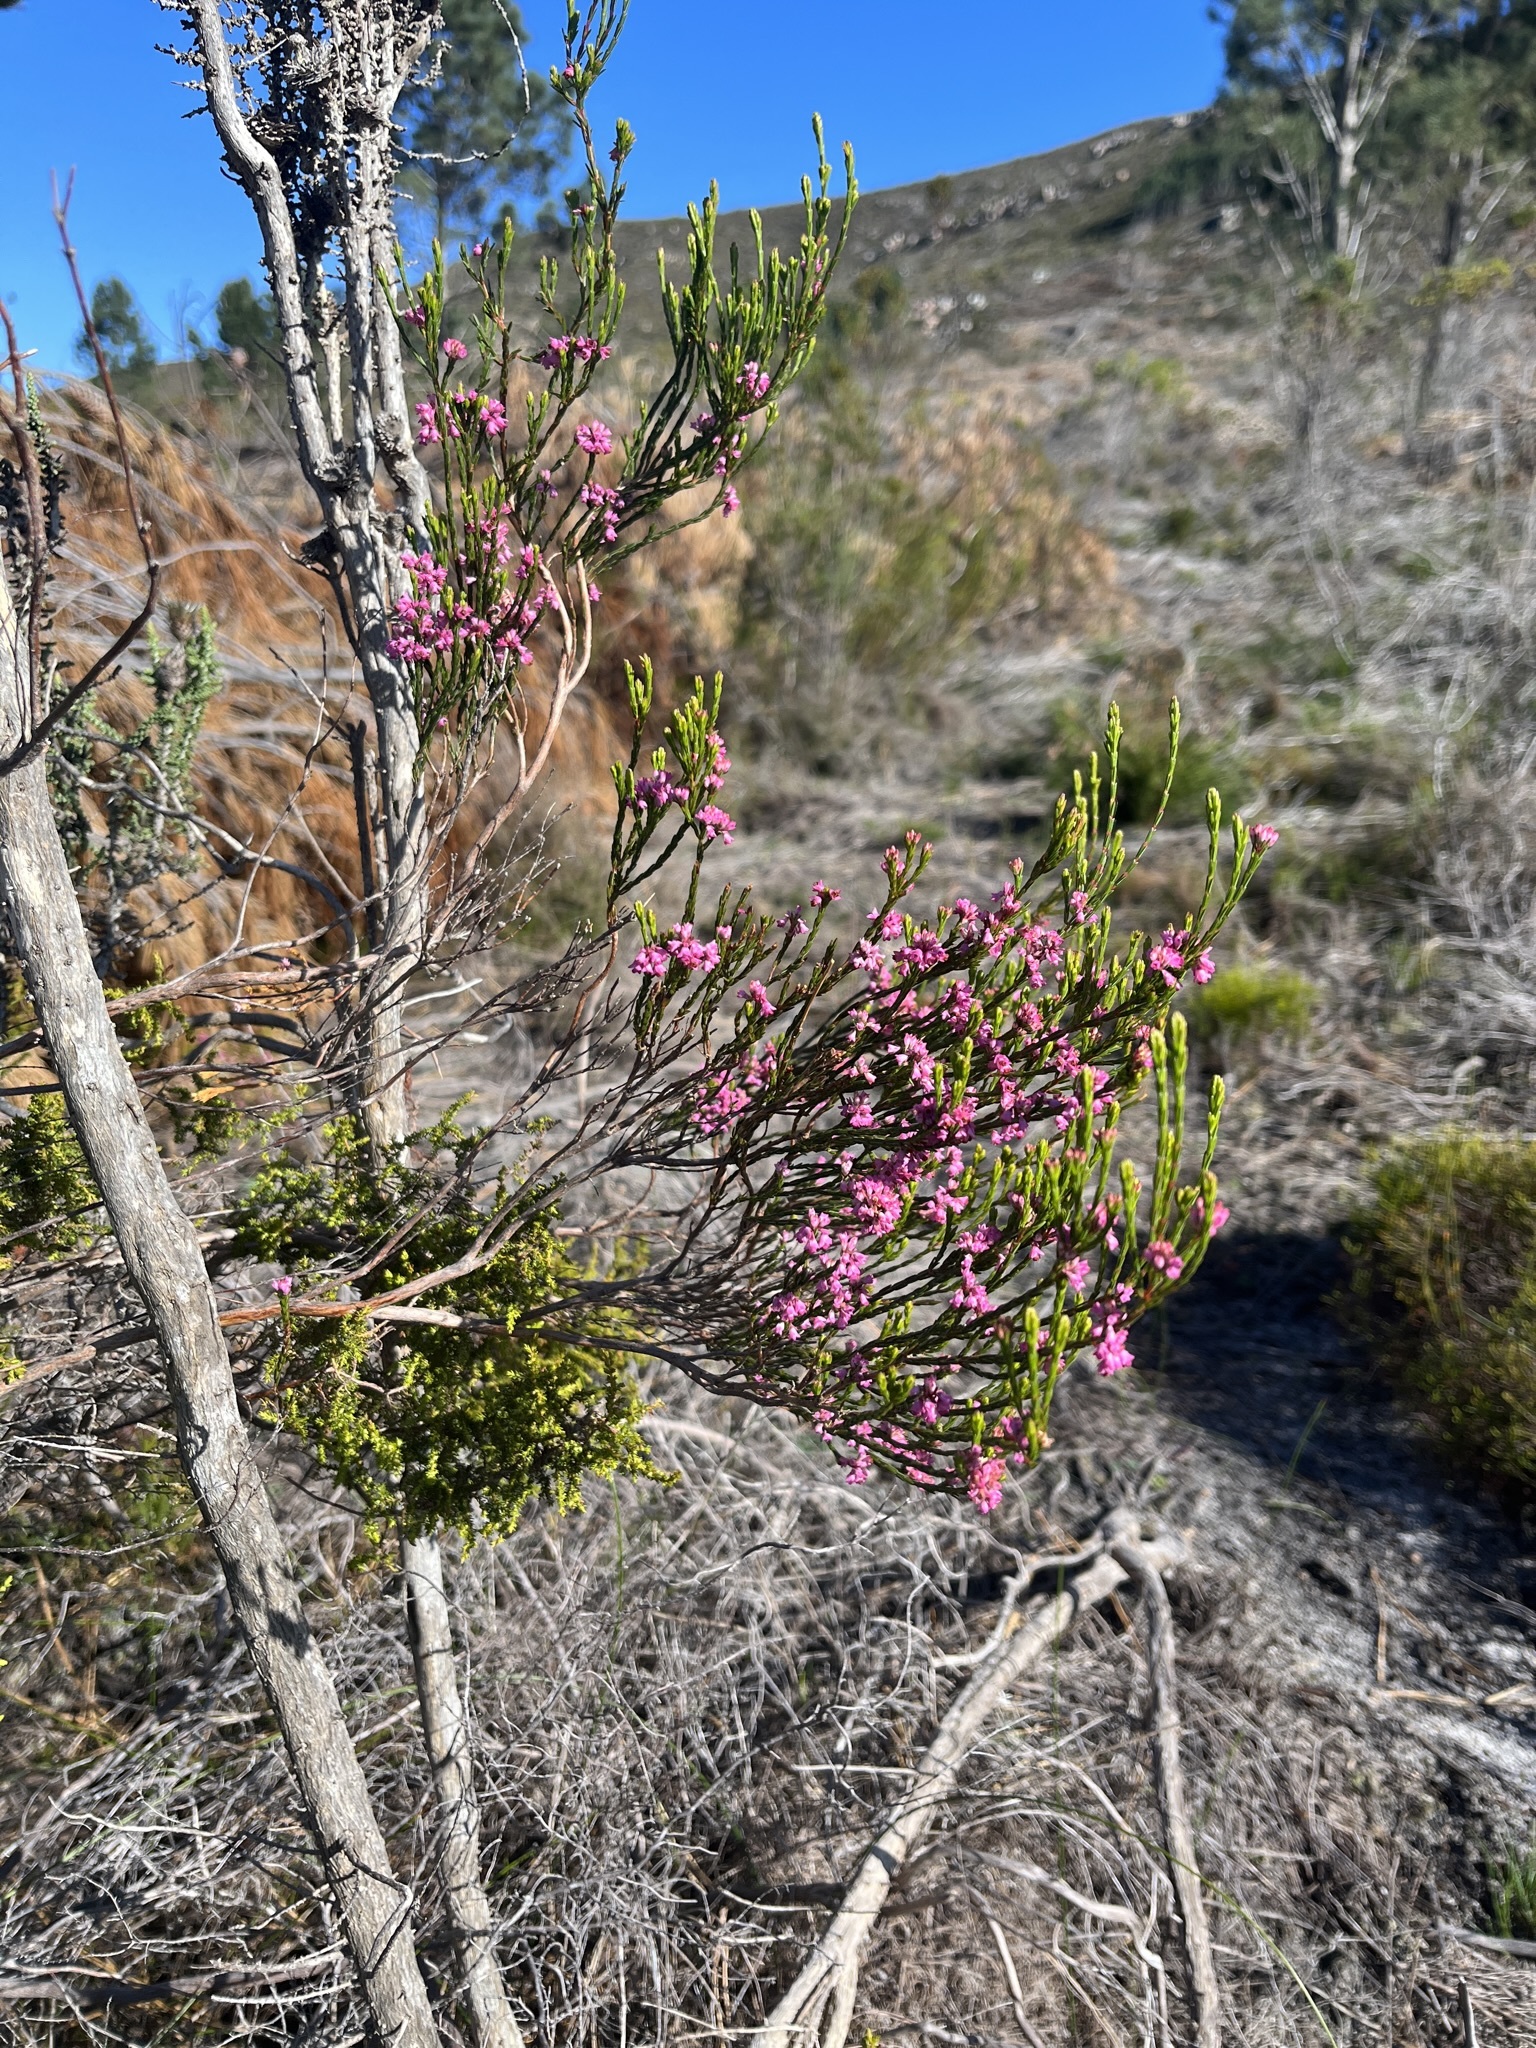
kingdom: Plantae
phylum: Tracheophyta
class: Magnoliopsida
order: Ericales
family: Ericaceae
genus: Erica
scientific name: Erica corifolia
